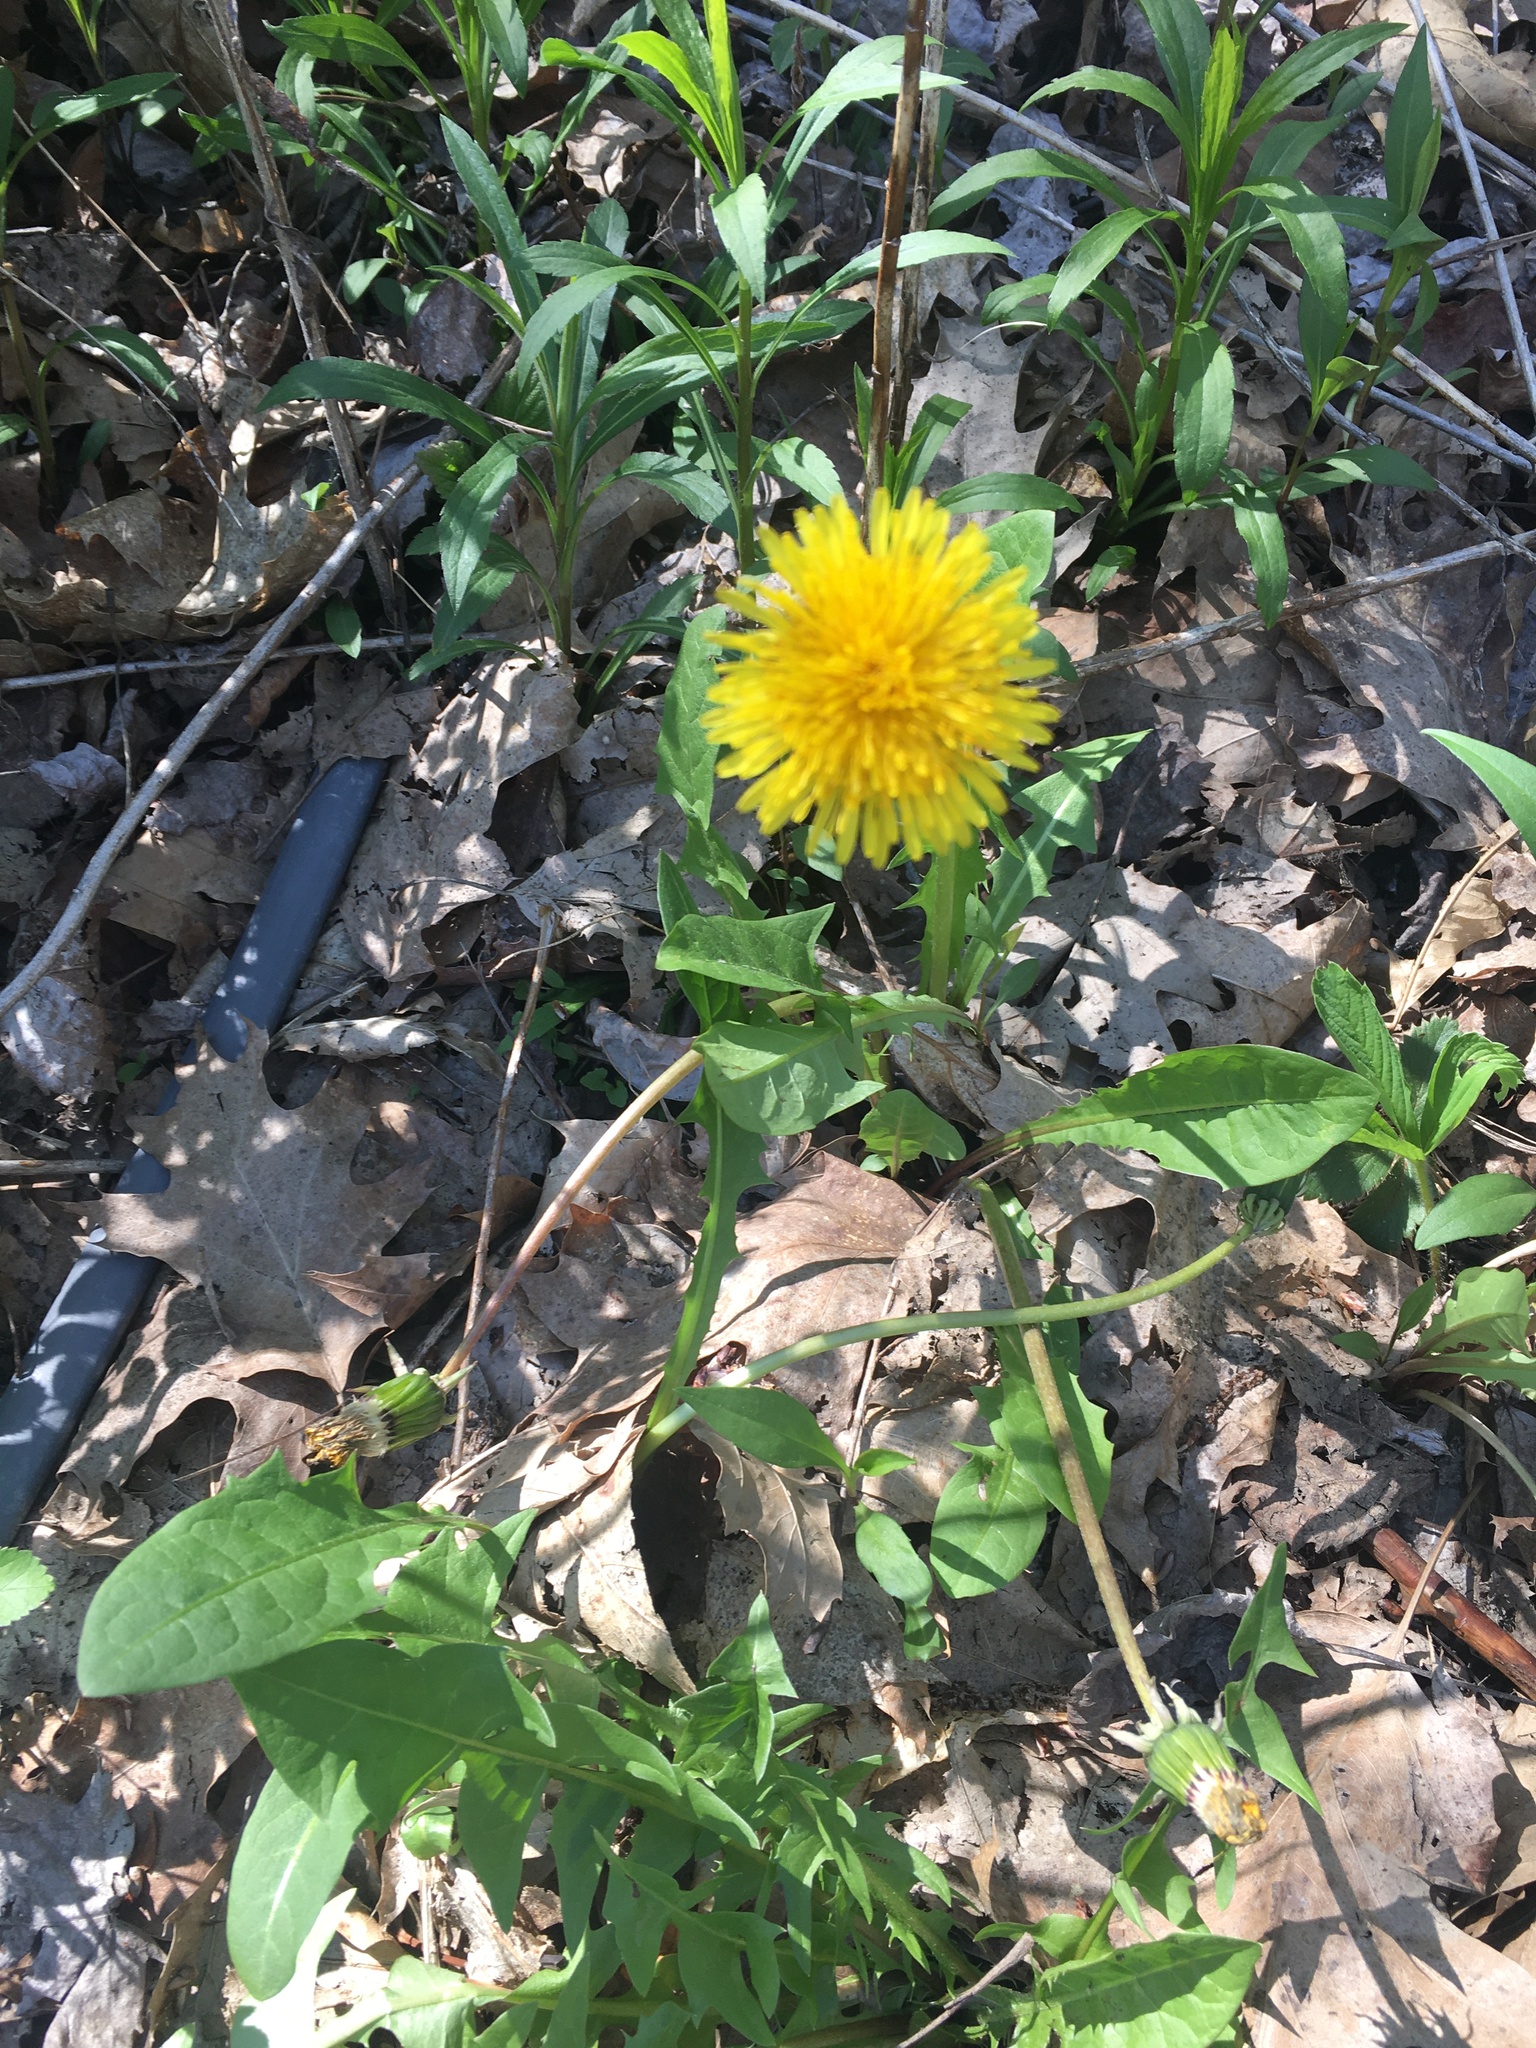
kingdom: Plantae
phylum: Tracheophyta
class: Magnoliopsida
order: Asterales
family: Asteraceae
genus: Taraxacum
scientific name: Taraxacum officinale
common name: Common dandelion
